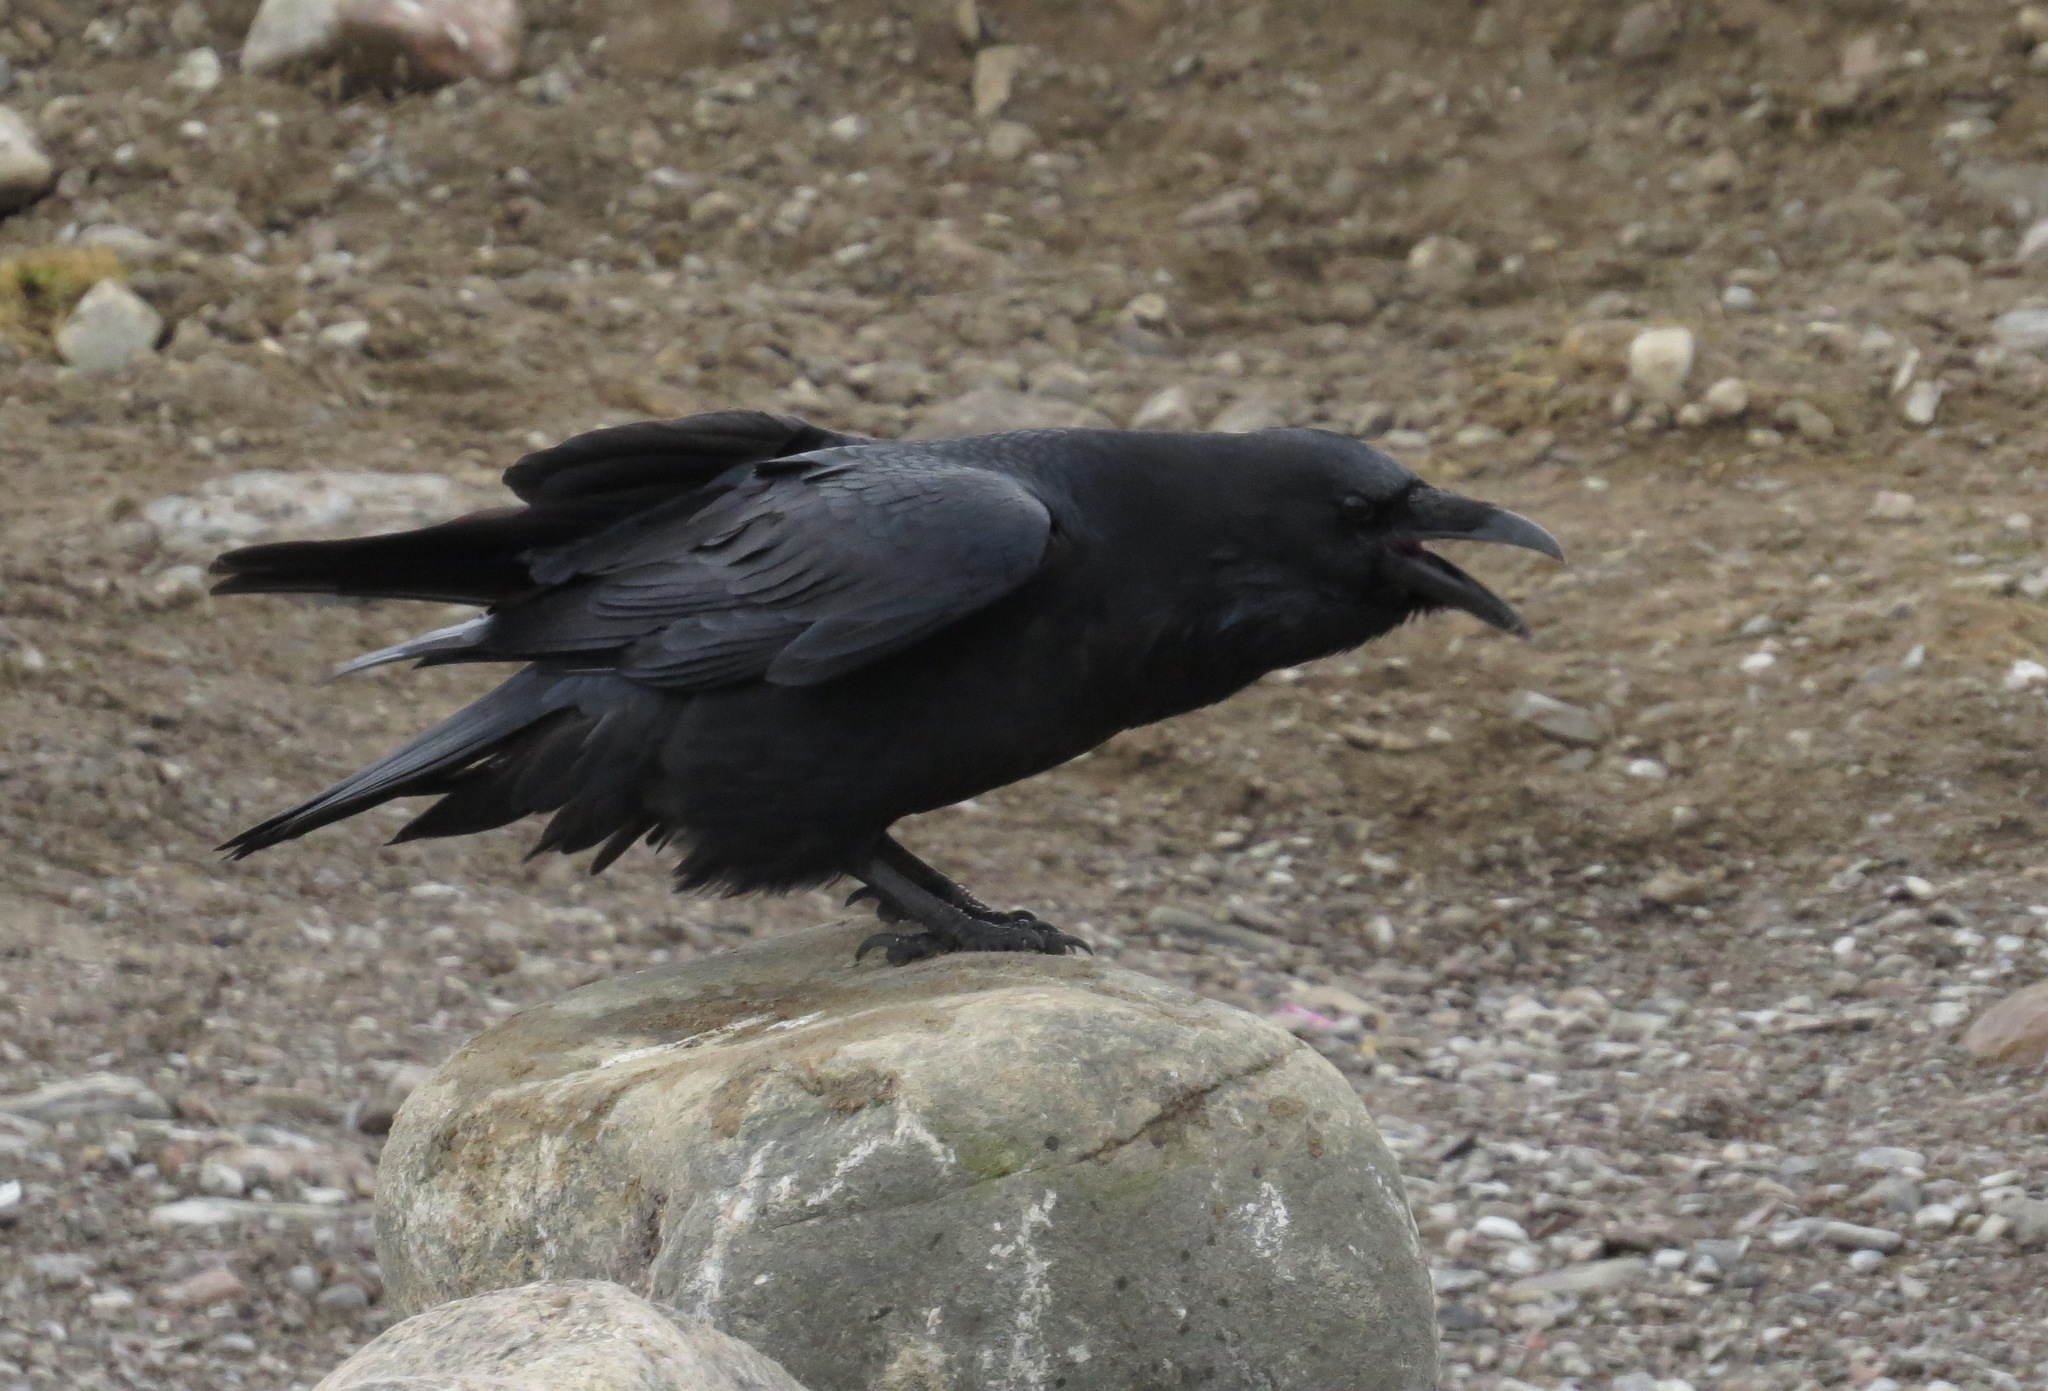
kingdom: Animalia
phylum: Chordata
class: Aves
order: Passeriformes
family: Corvidae
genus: Corvus
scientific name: Corvus corax
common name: Common raven
